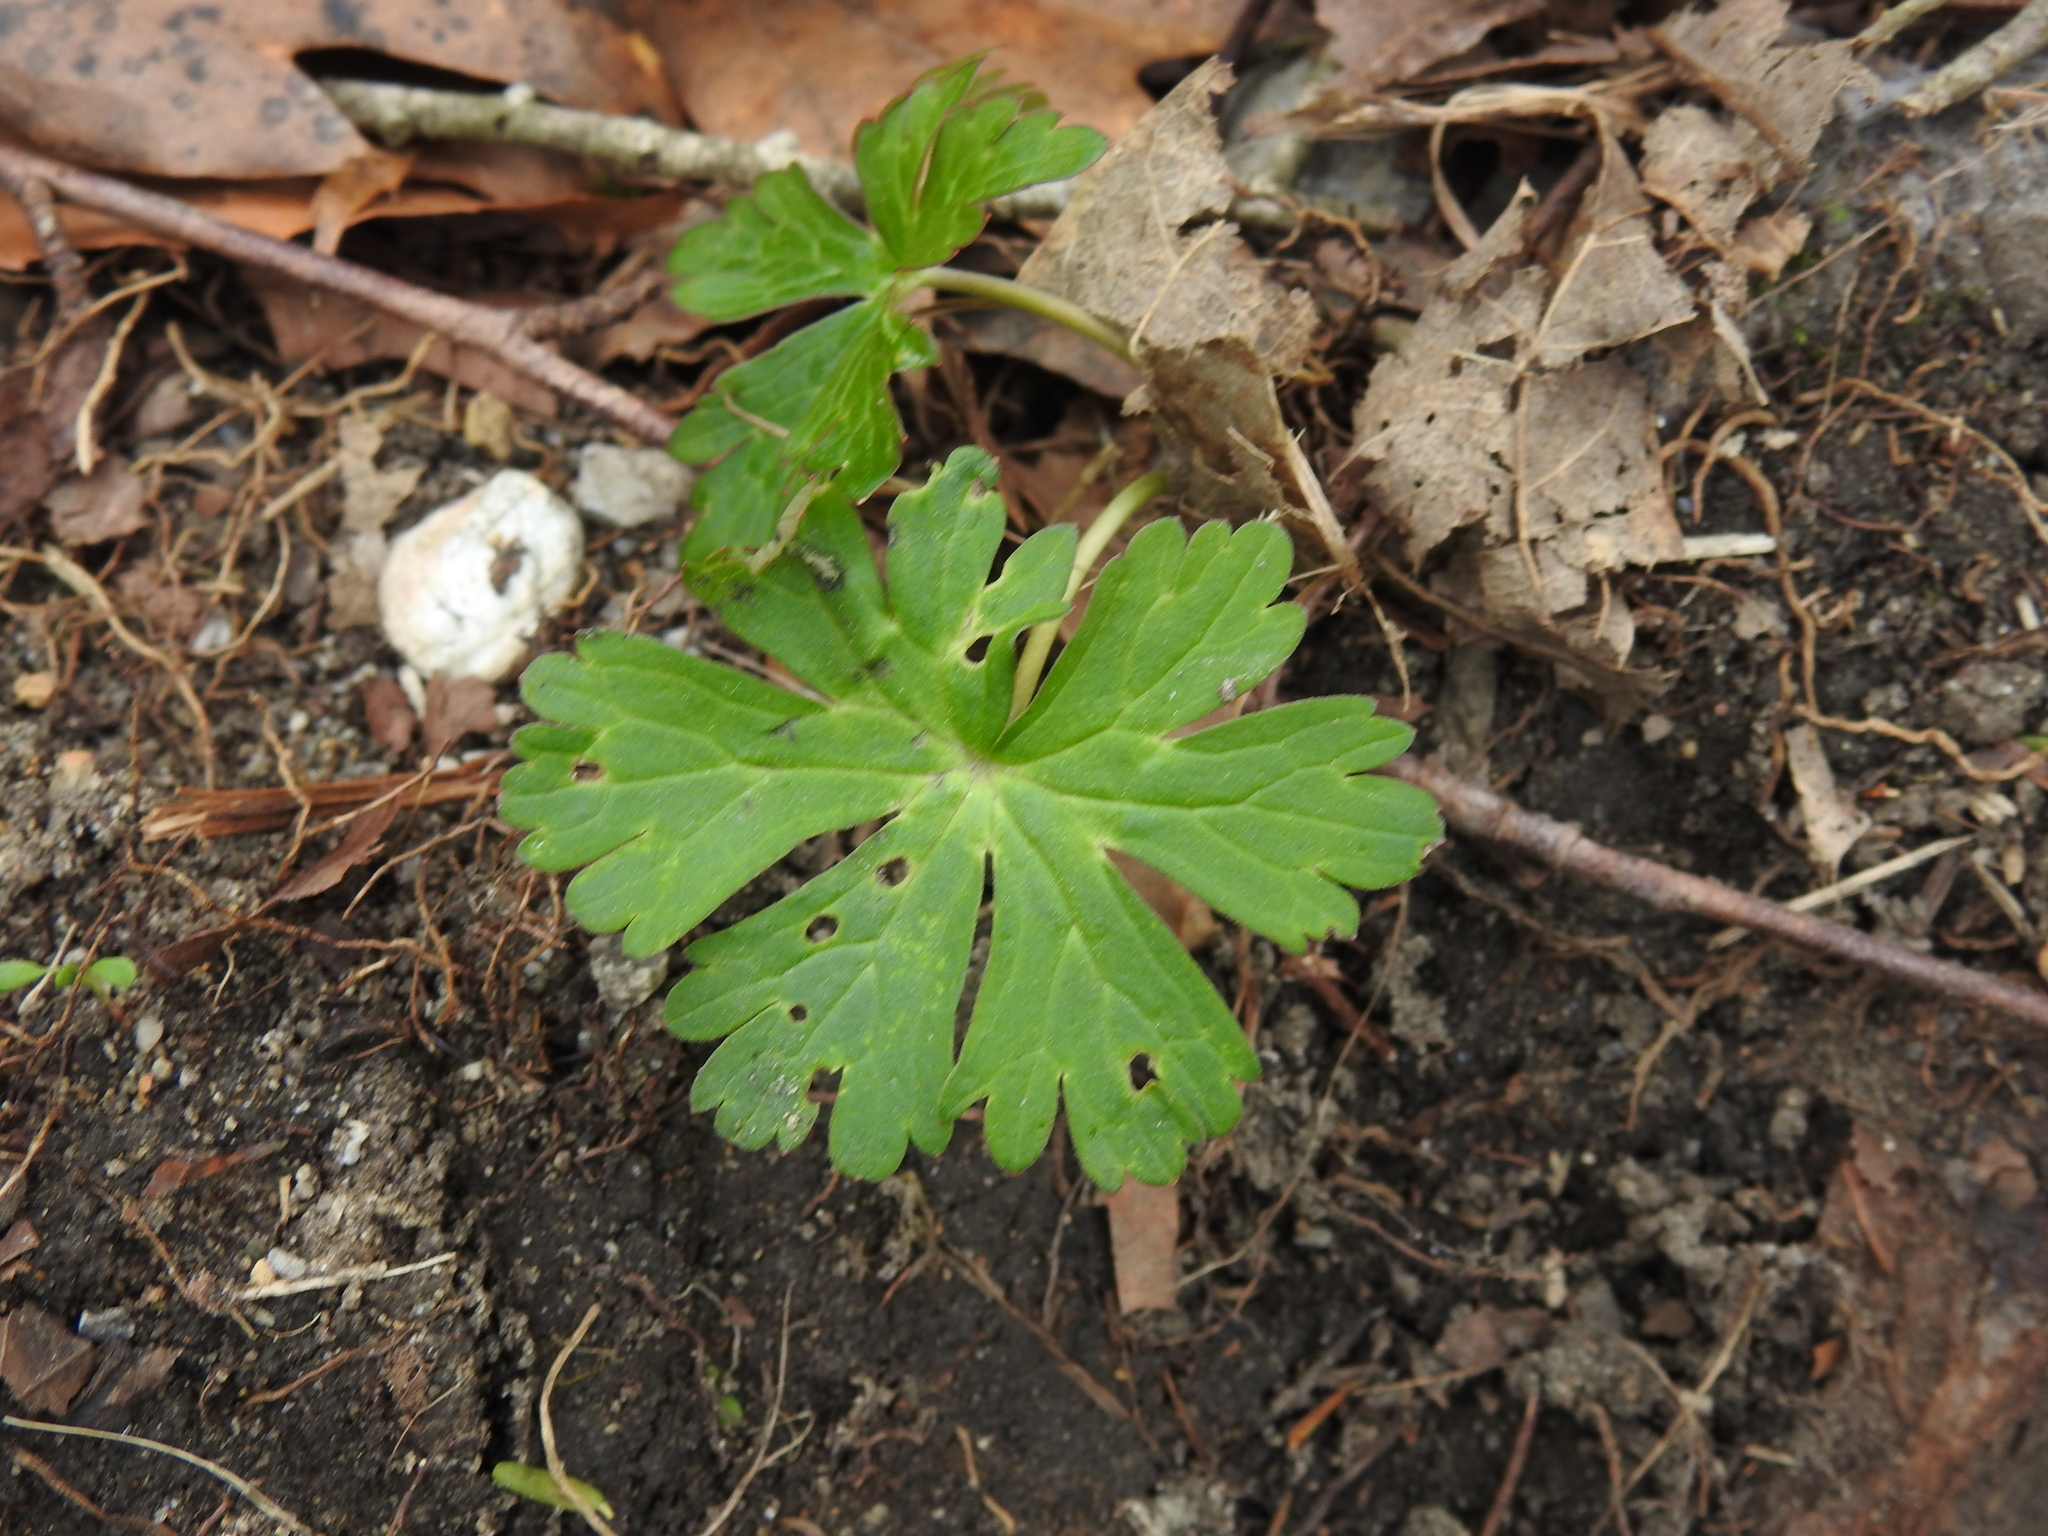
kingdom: Plantae
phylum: Tracheophyta
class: Magnoliopsida
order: Geraniales
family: Geraniaceae
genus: Geranium
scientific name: Geranium maculatum
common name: Spotted geranium
